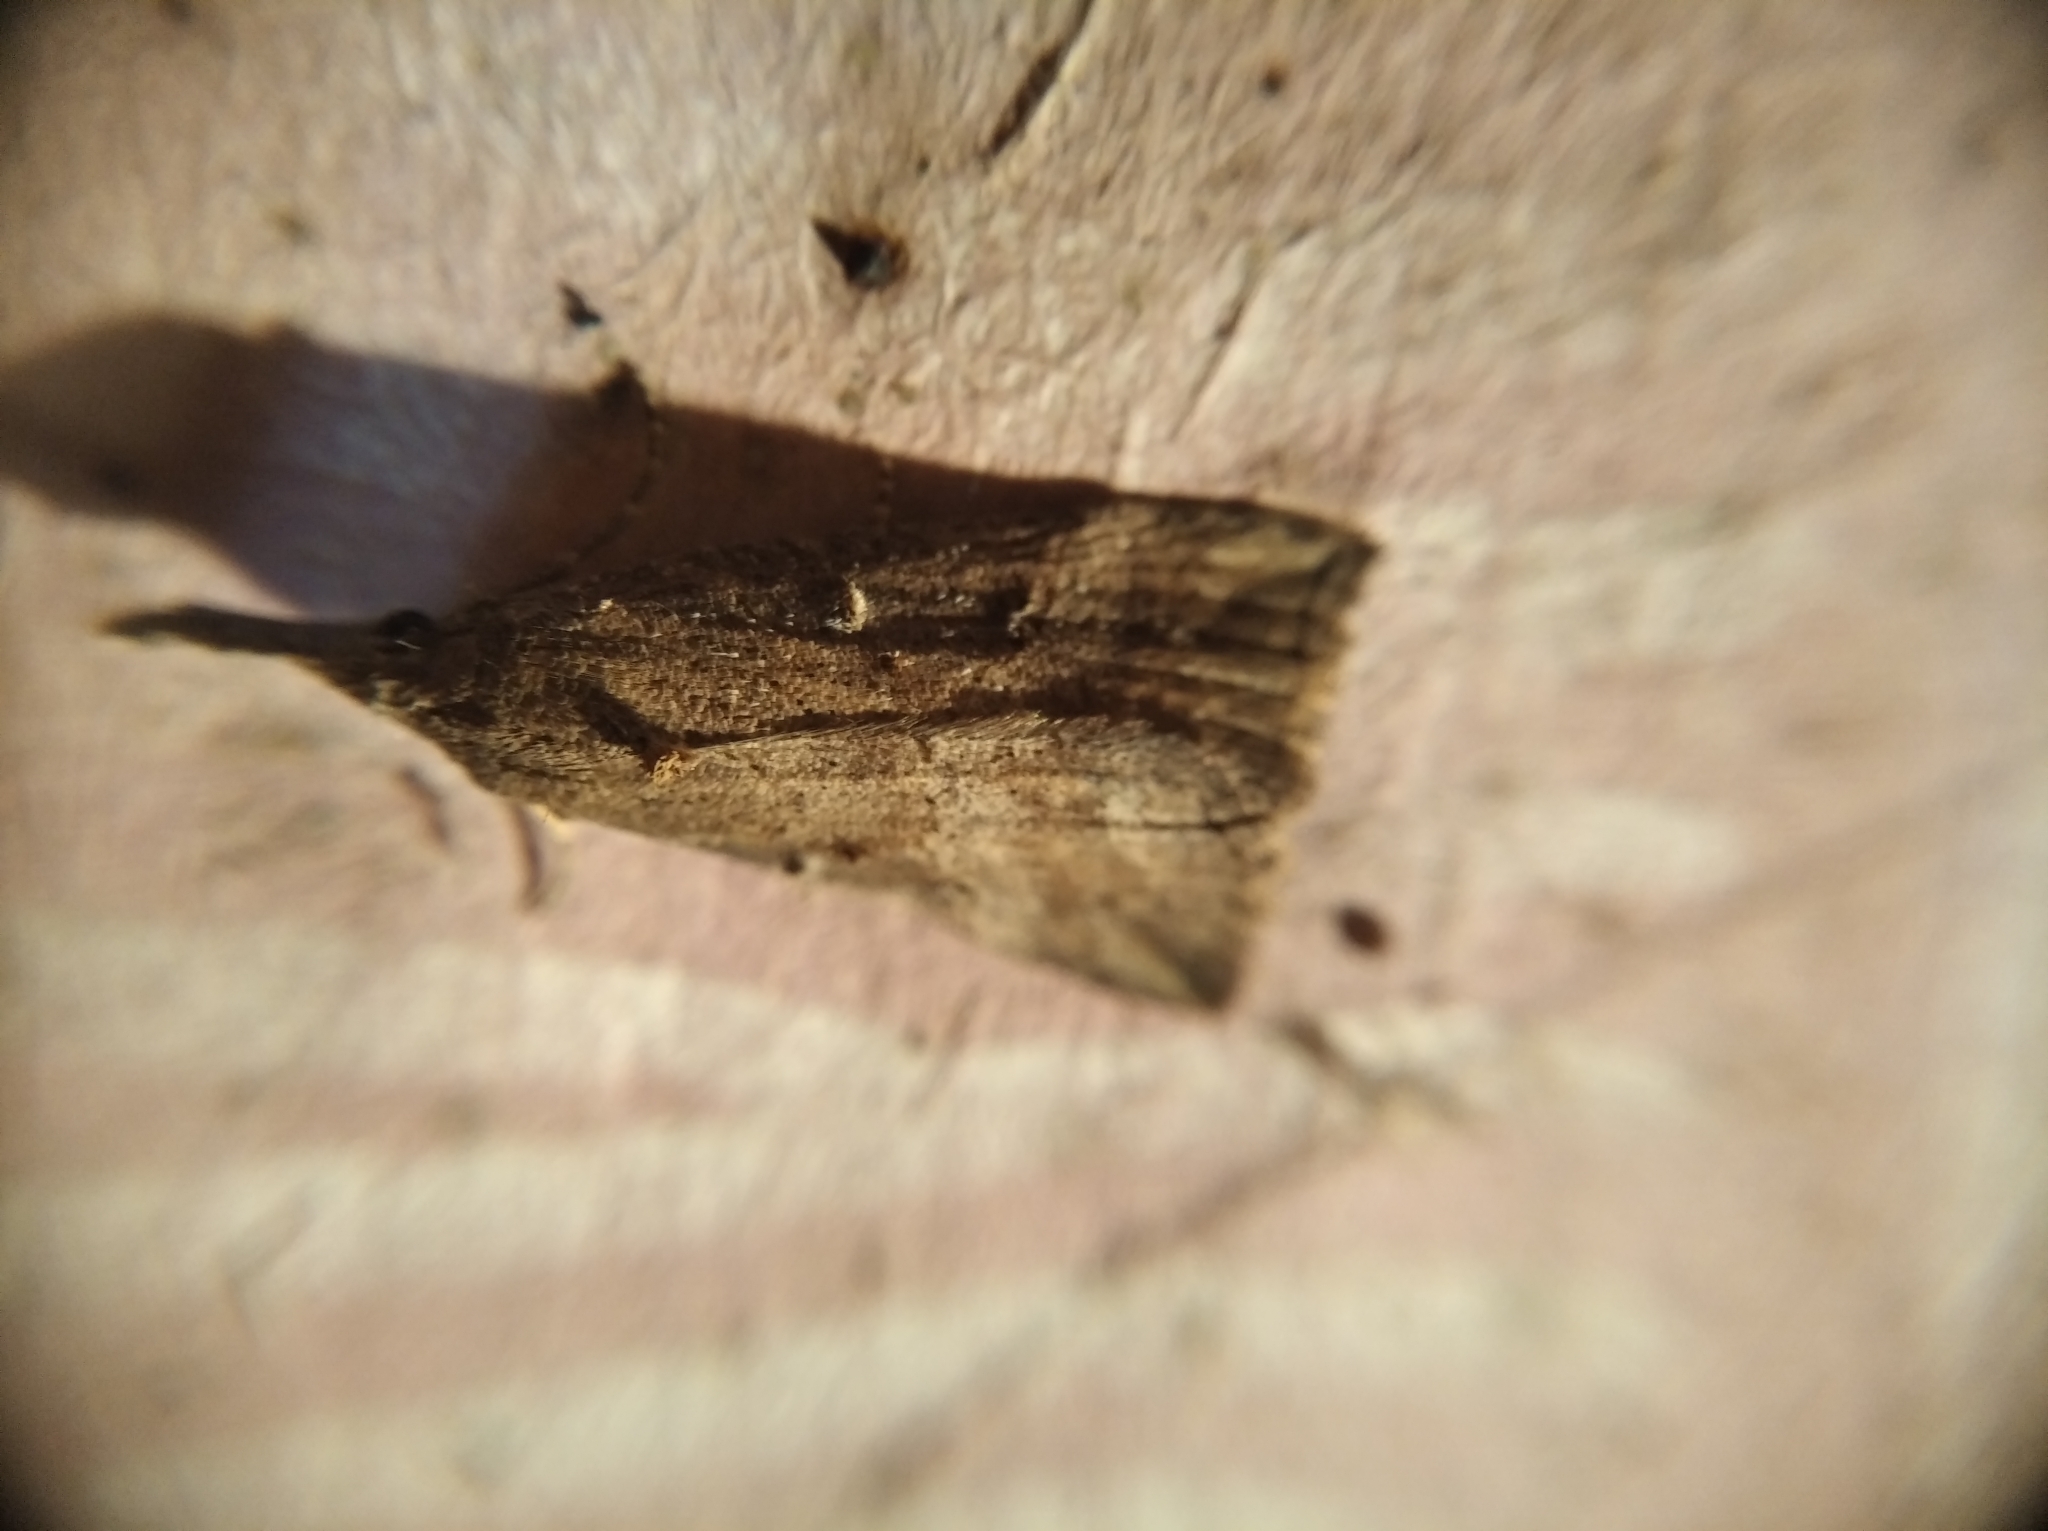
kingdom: Animalia
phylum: Arthropoda
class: Insecta
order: Lepidoptera
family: Erebidae
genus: Hypena
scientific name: Hypena rostralis
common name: Buttoned snout
